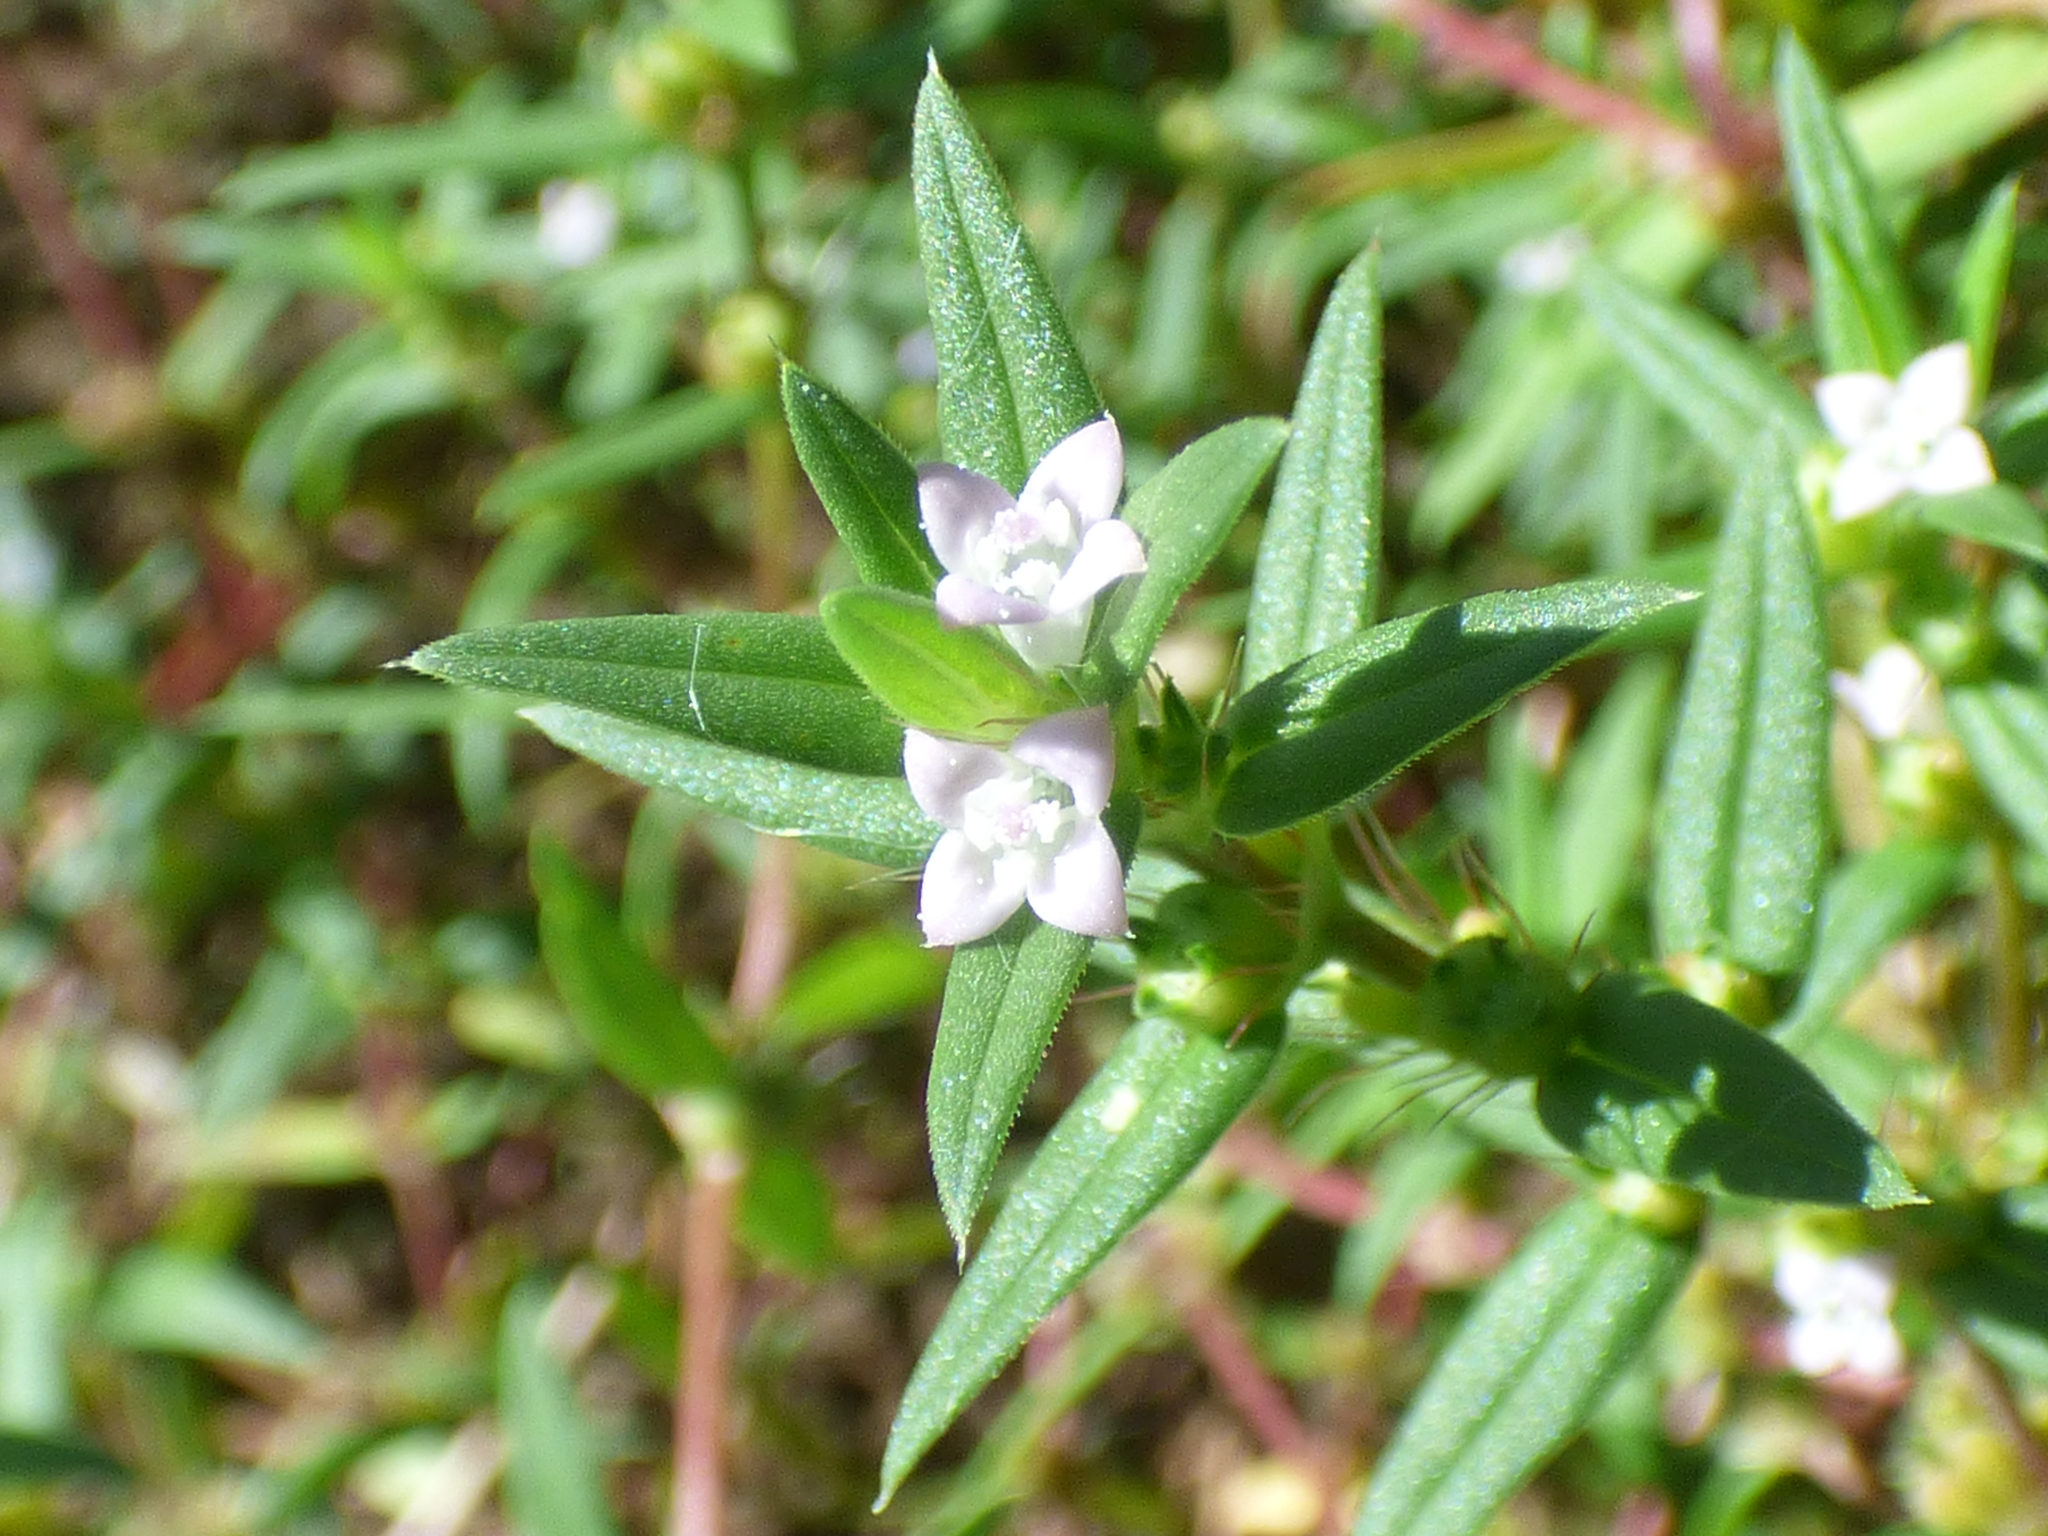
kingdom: Plantae
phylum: Tracheophyta
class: Magnoliopsida
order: Gentianales
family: Rubiaceae
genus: Hexasepalum
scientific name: Hexasepalum teres
